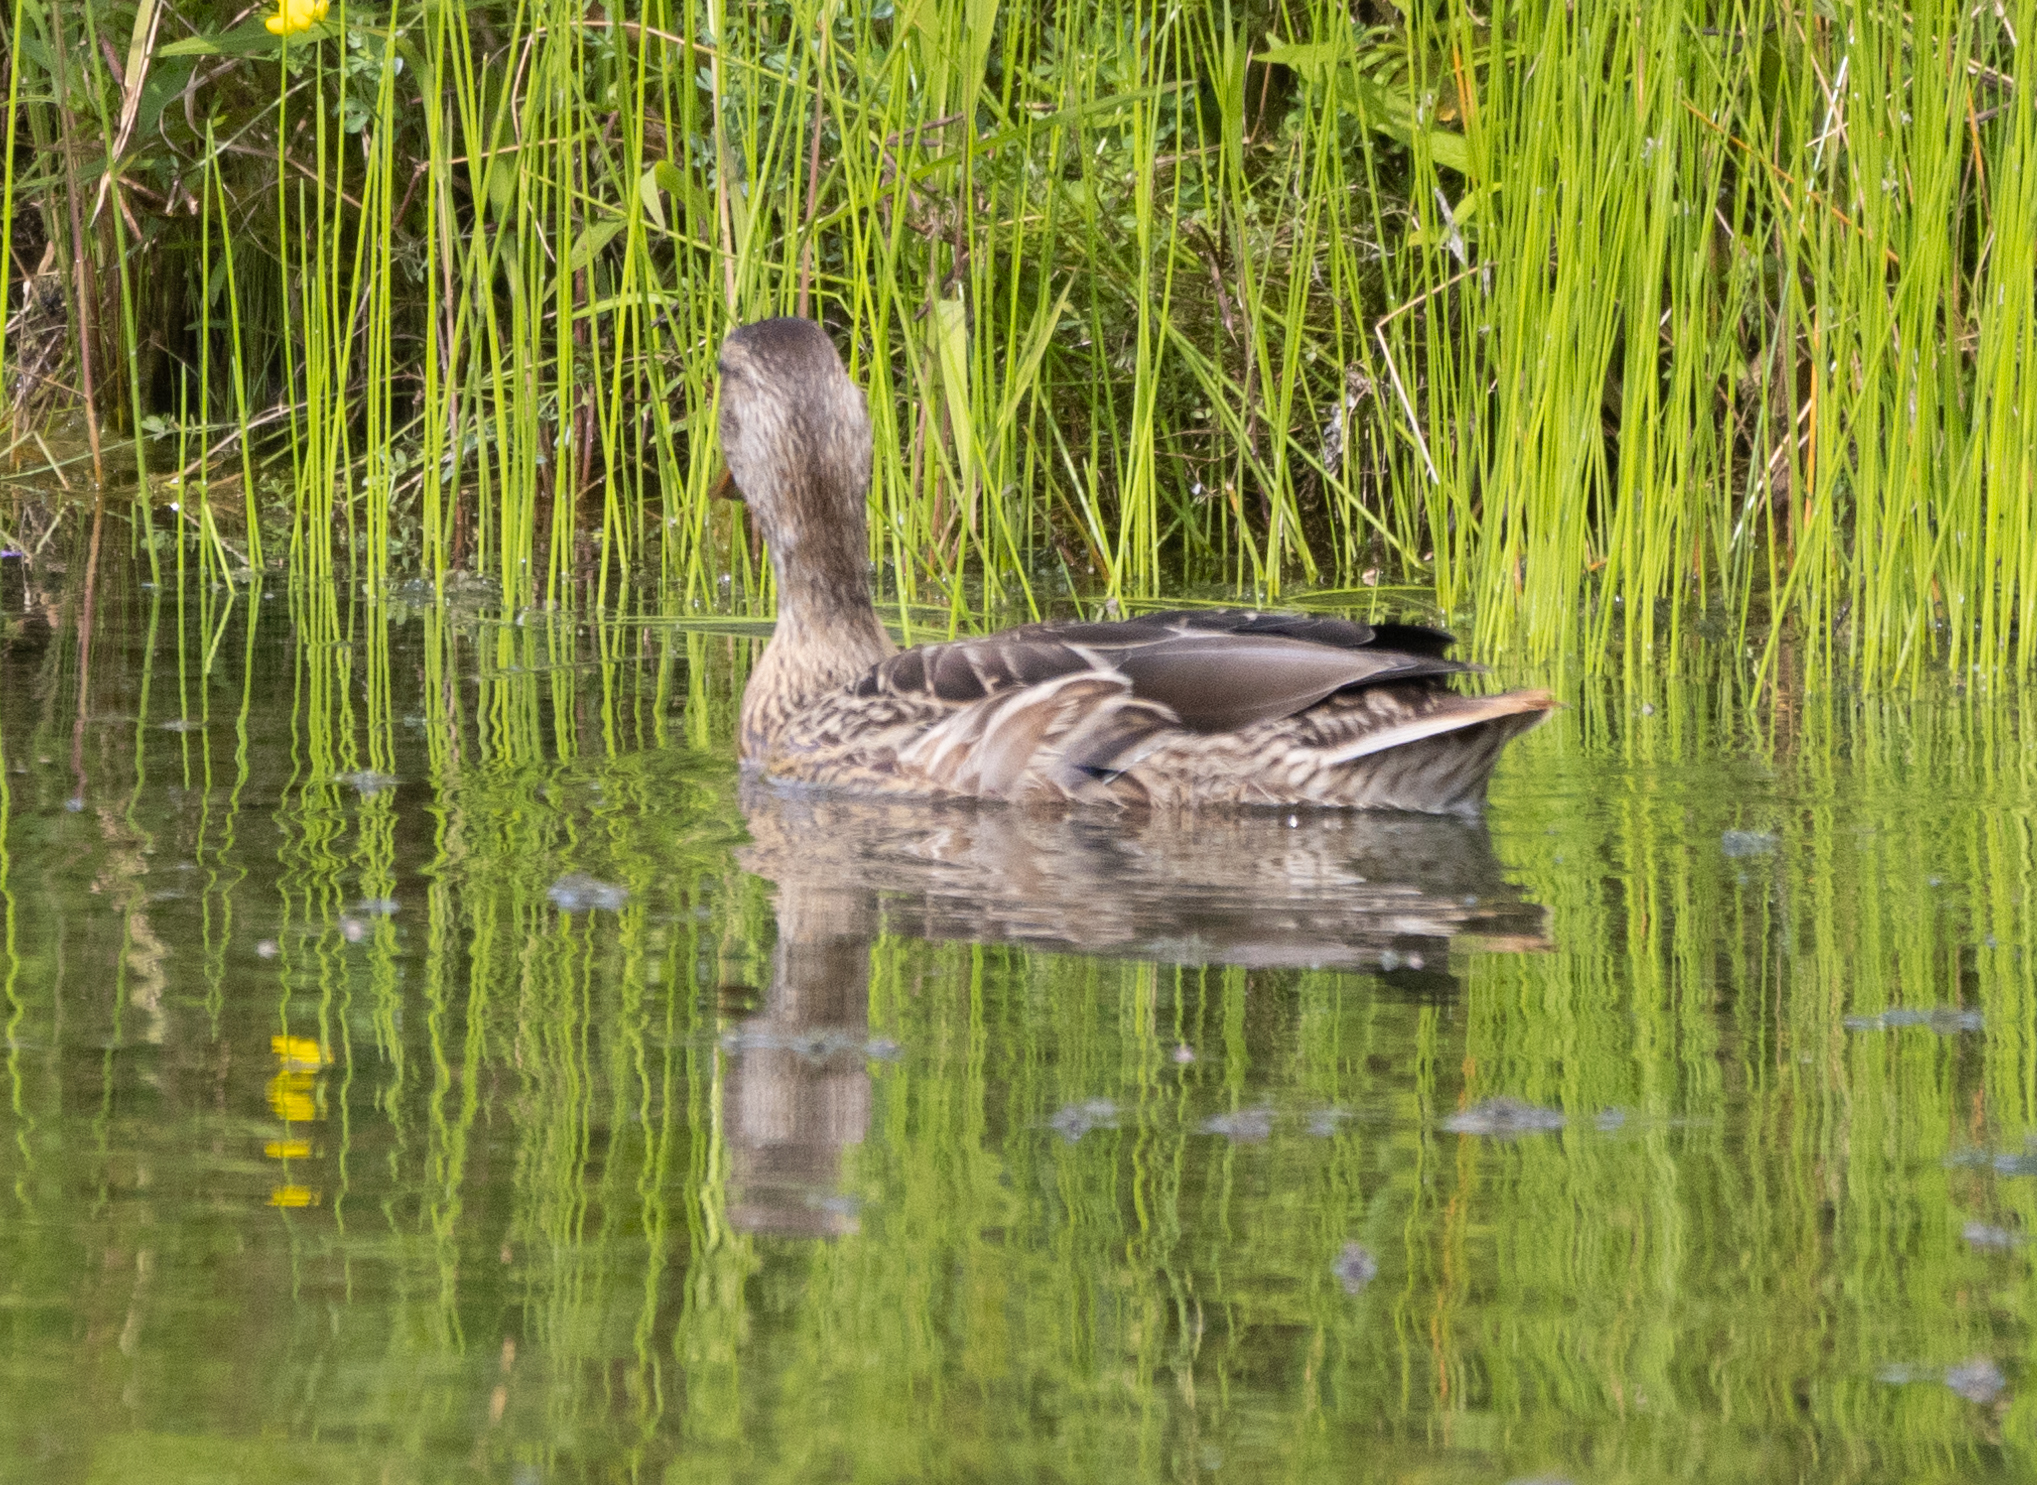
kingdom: Animalia
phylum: Chordata
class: Aves
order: Anseriformes
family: Anatidae
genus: Anas
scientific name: Anas platyrhynchos
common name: Mallard
